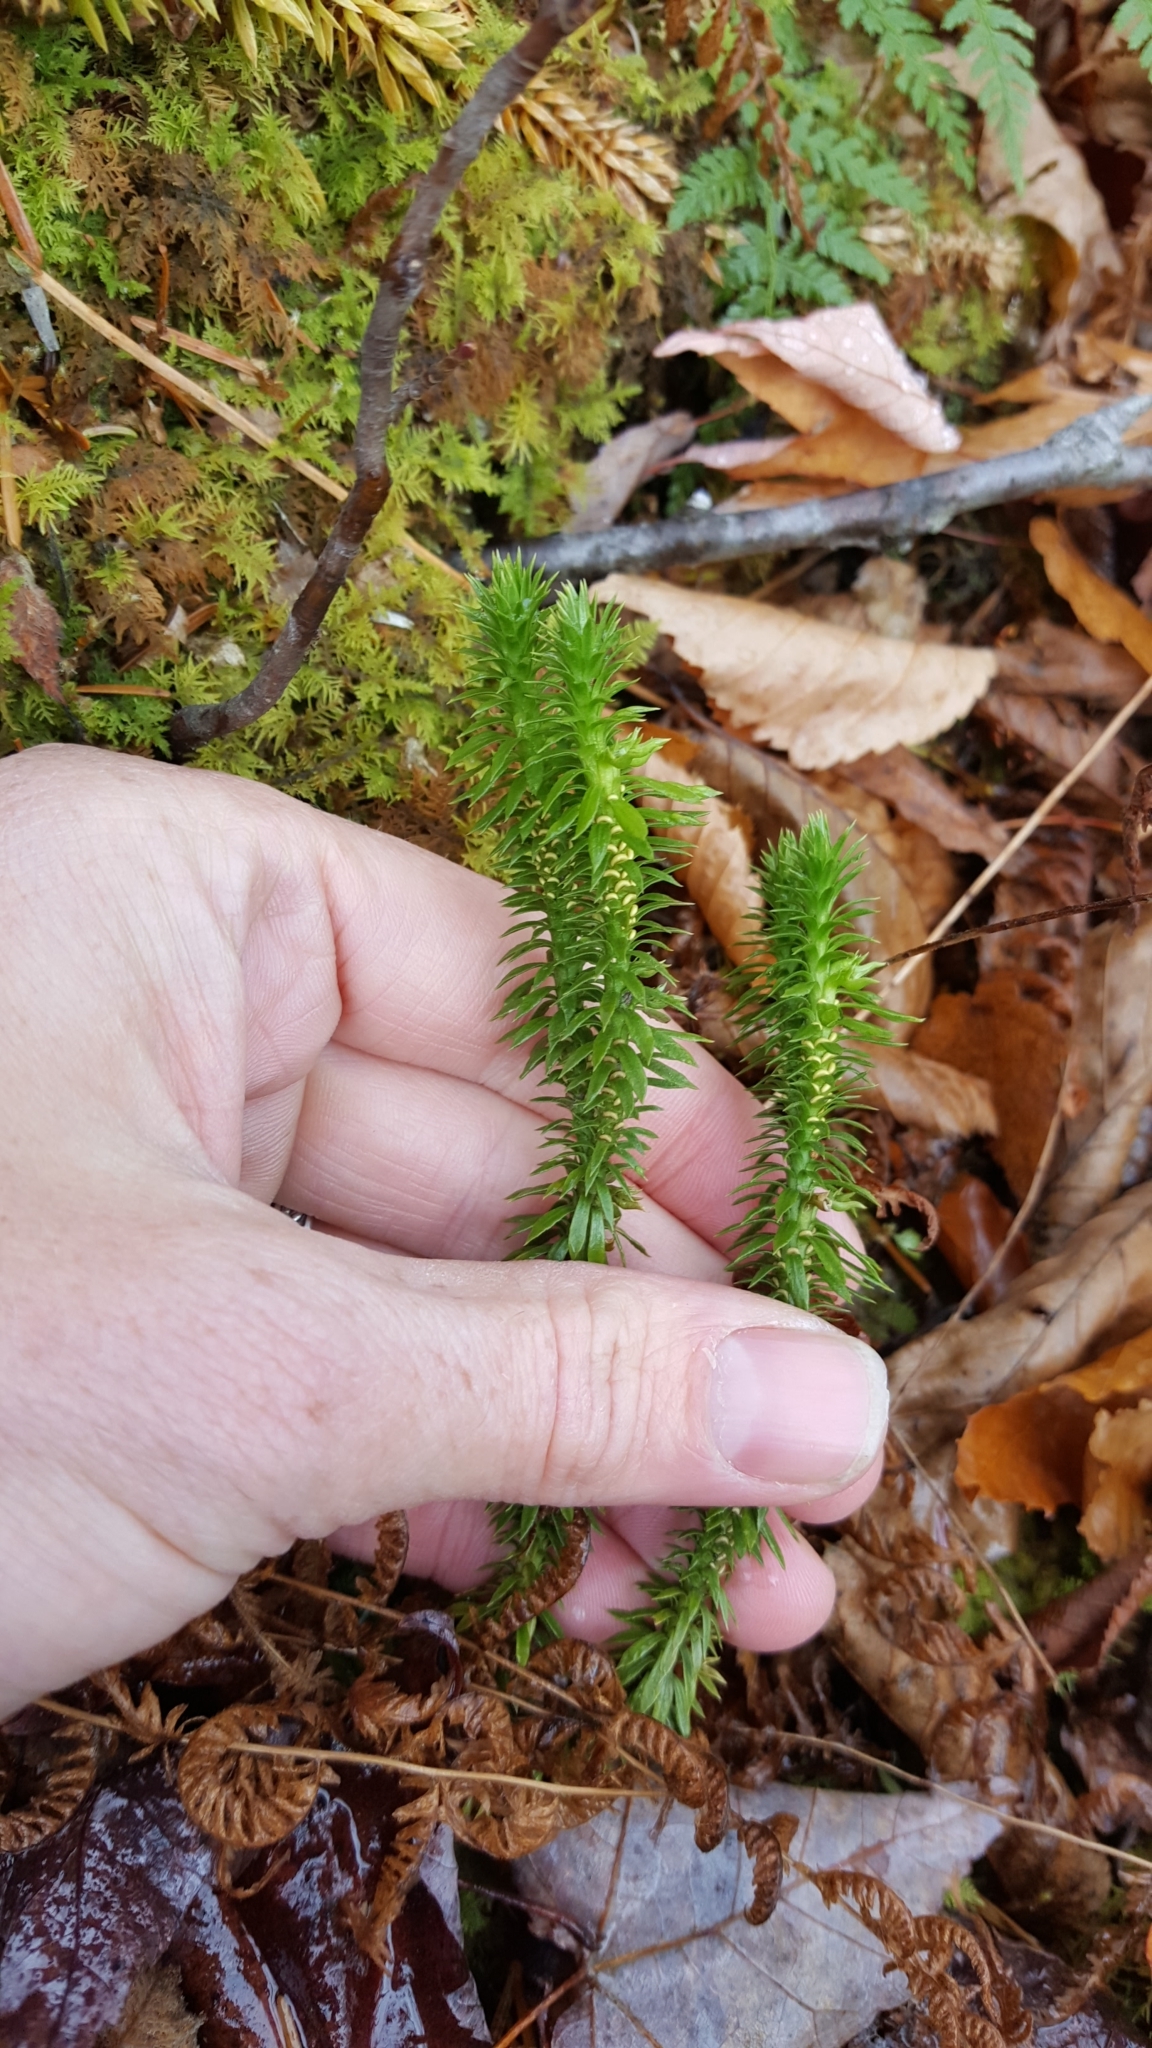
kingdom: Plantae
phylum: Tracheophyta
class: Lycopodiopsida
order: Lycopodiales
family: Lycopodiaceae
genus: Huperzia
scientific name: Huperzia lucidula
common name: Shining clubmoss
